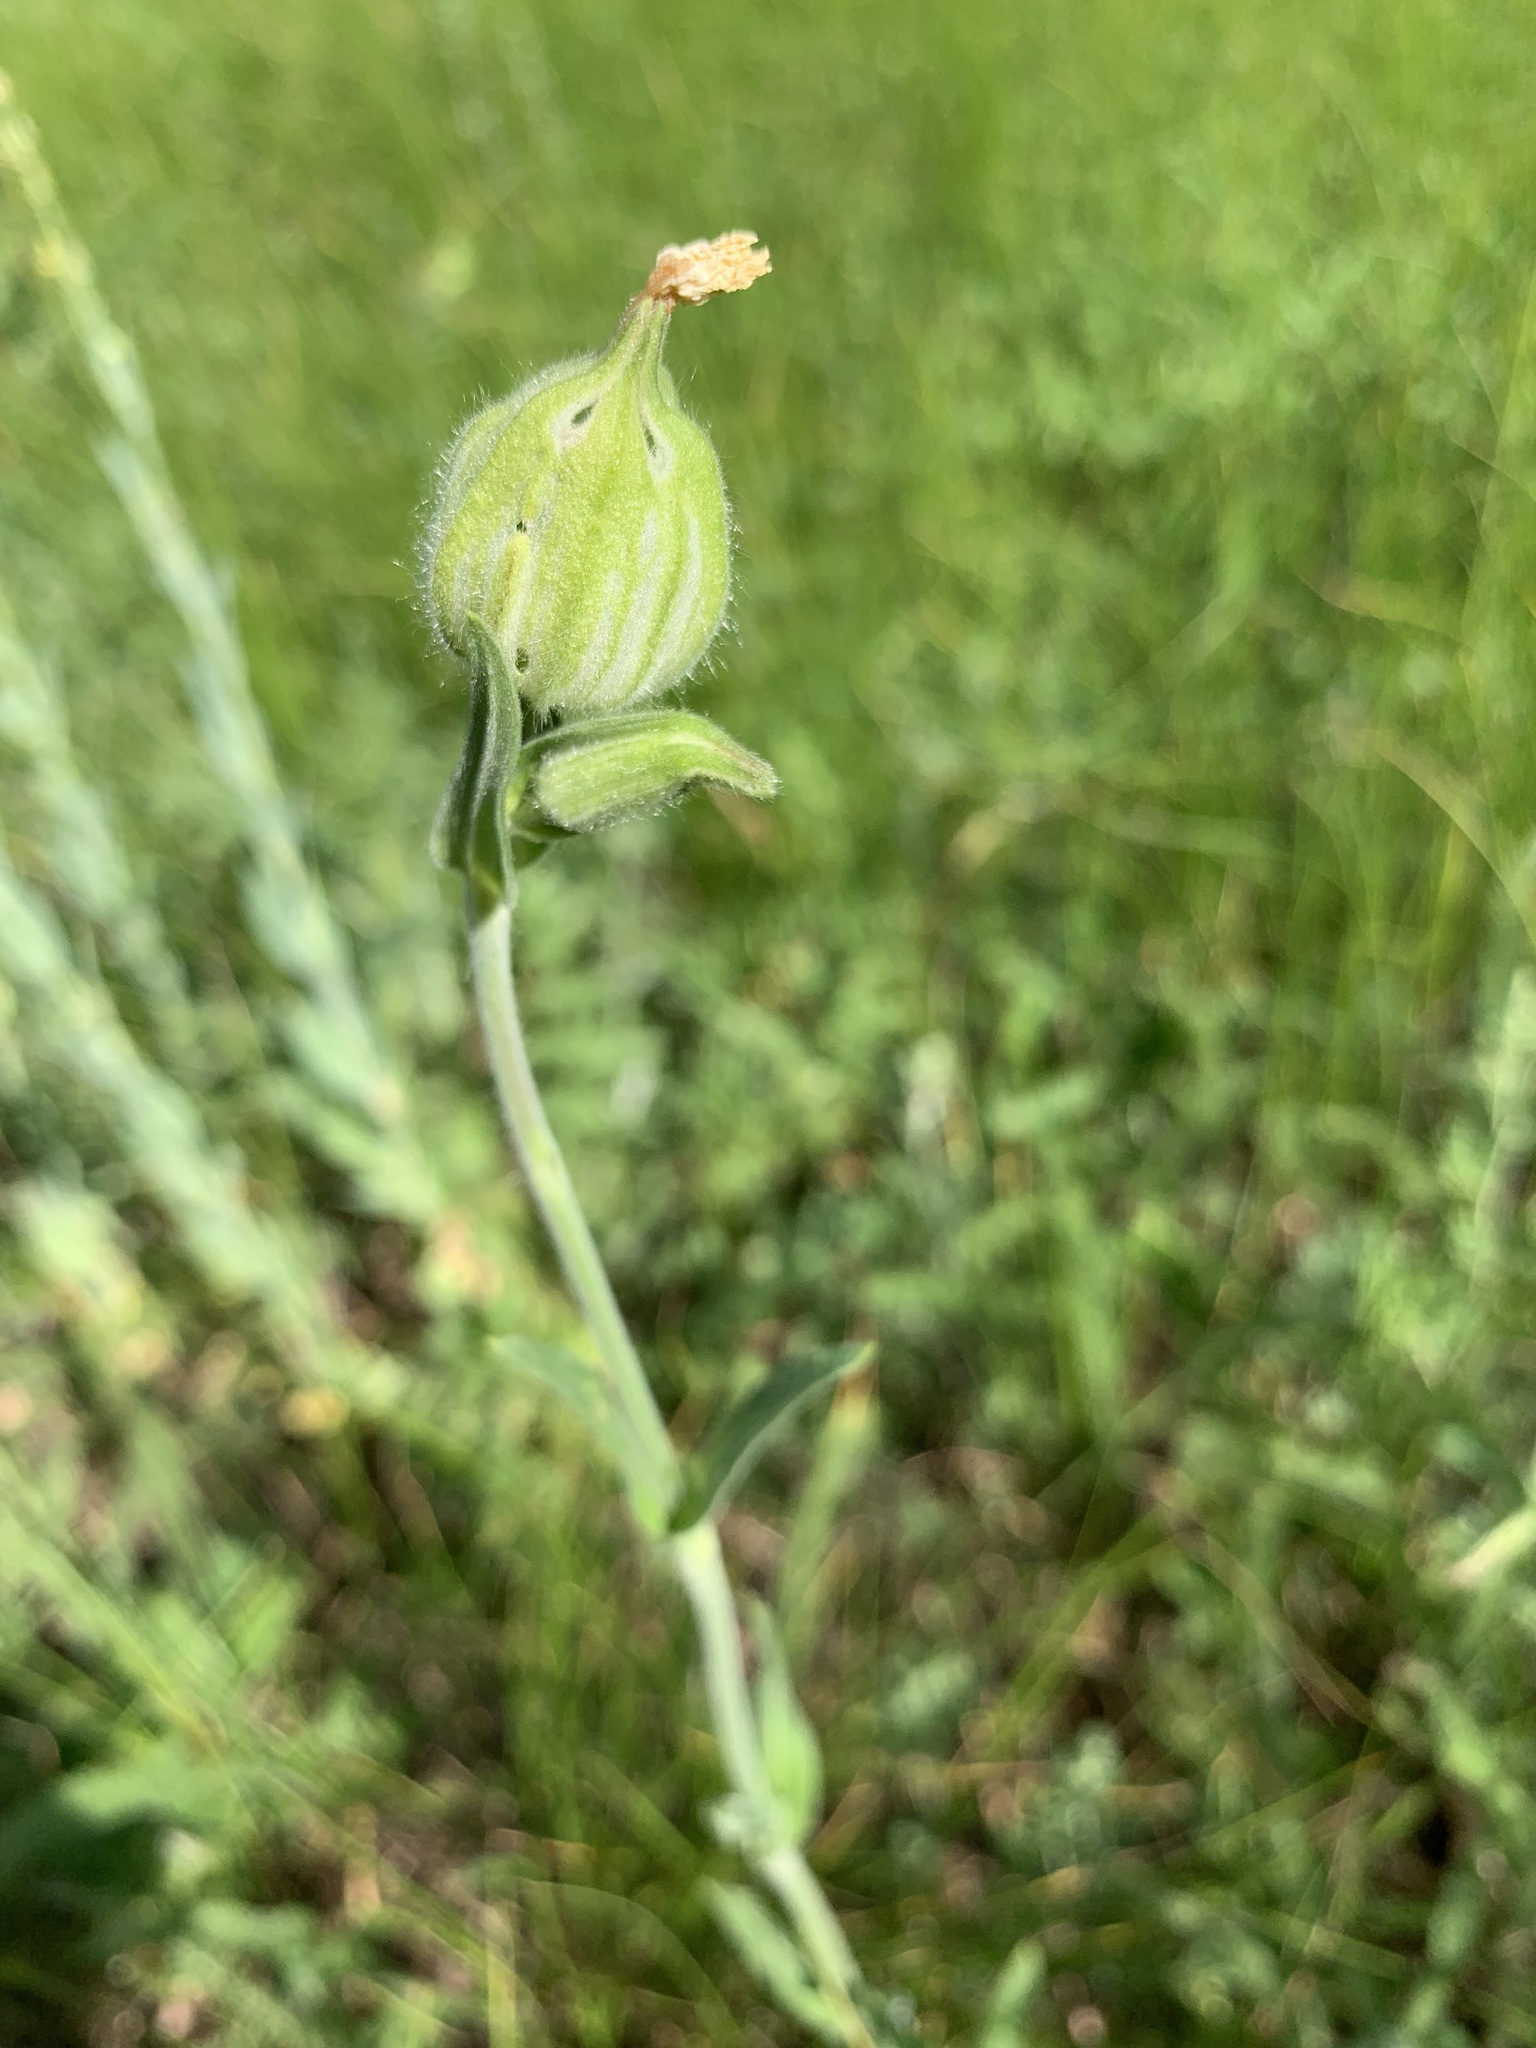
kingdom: Plantae
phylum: Tracheophyta
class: Magnoliopsida
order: Caryophyllales
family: Caryophyllaceae
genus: Silene
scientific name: Silene latifolia
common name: White campion
